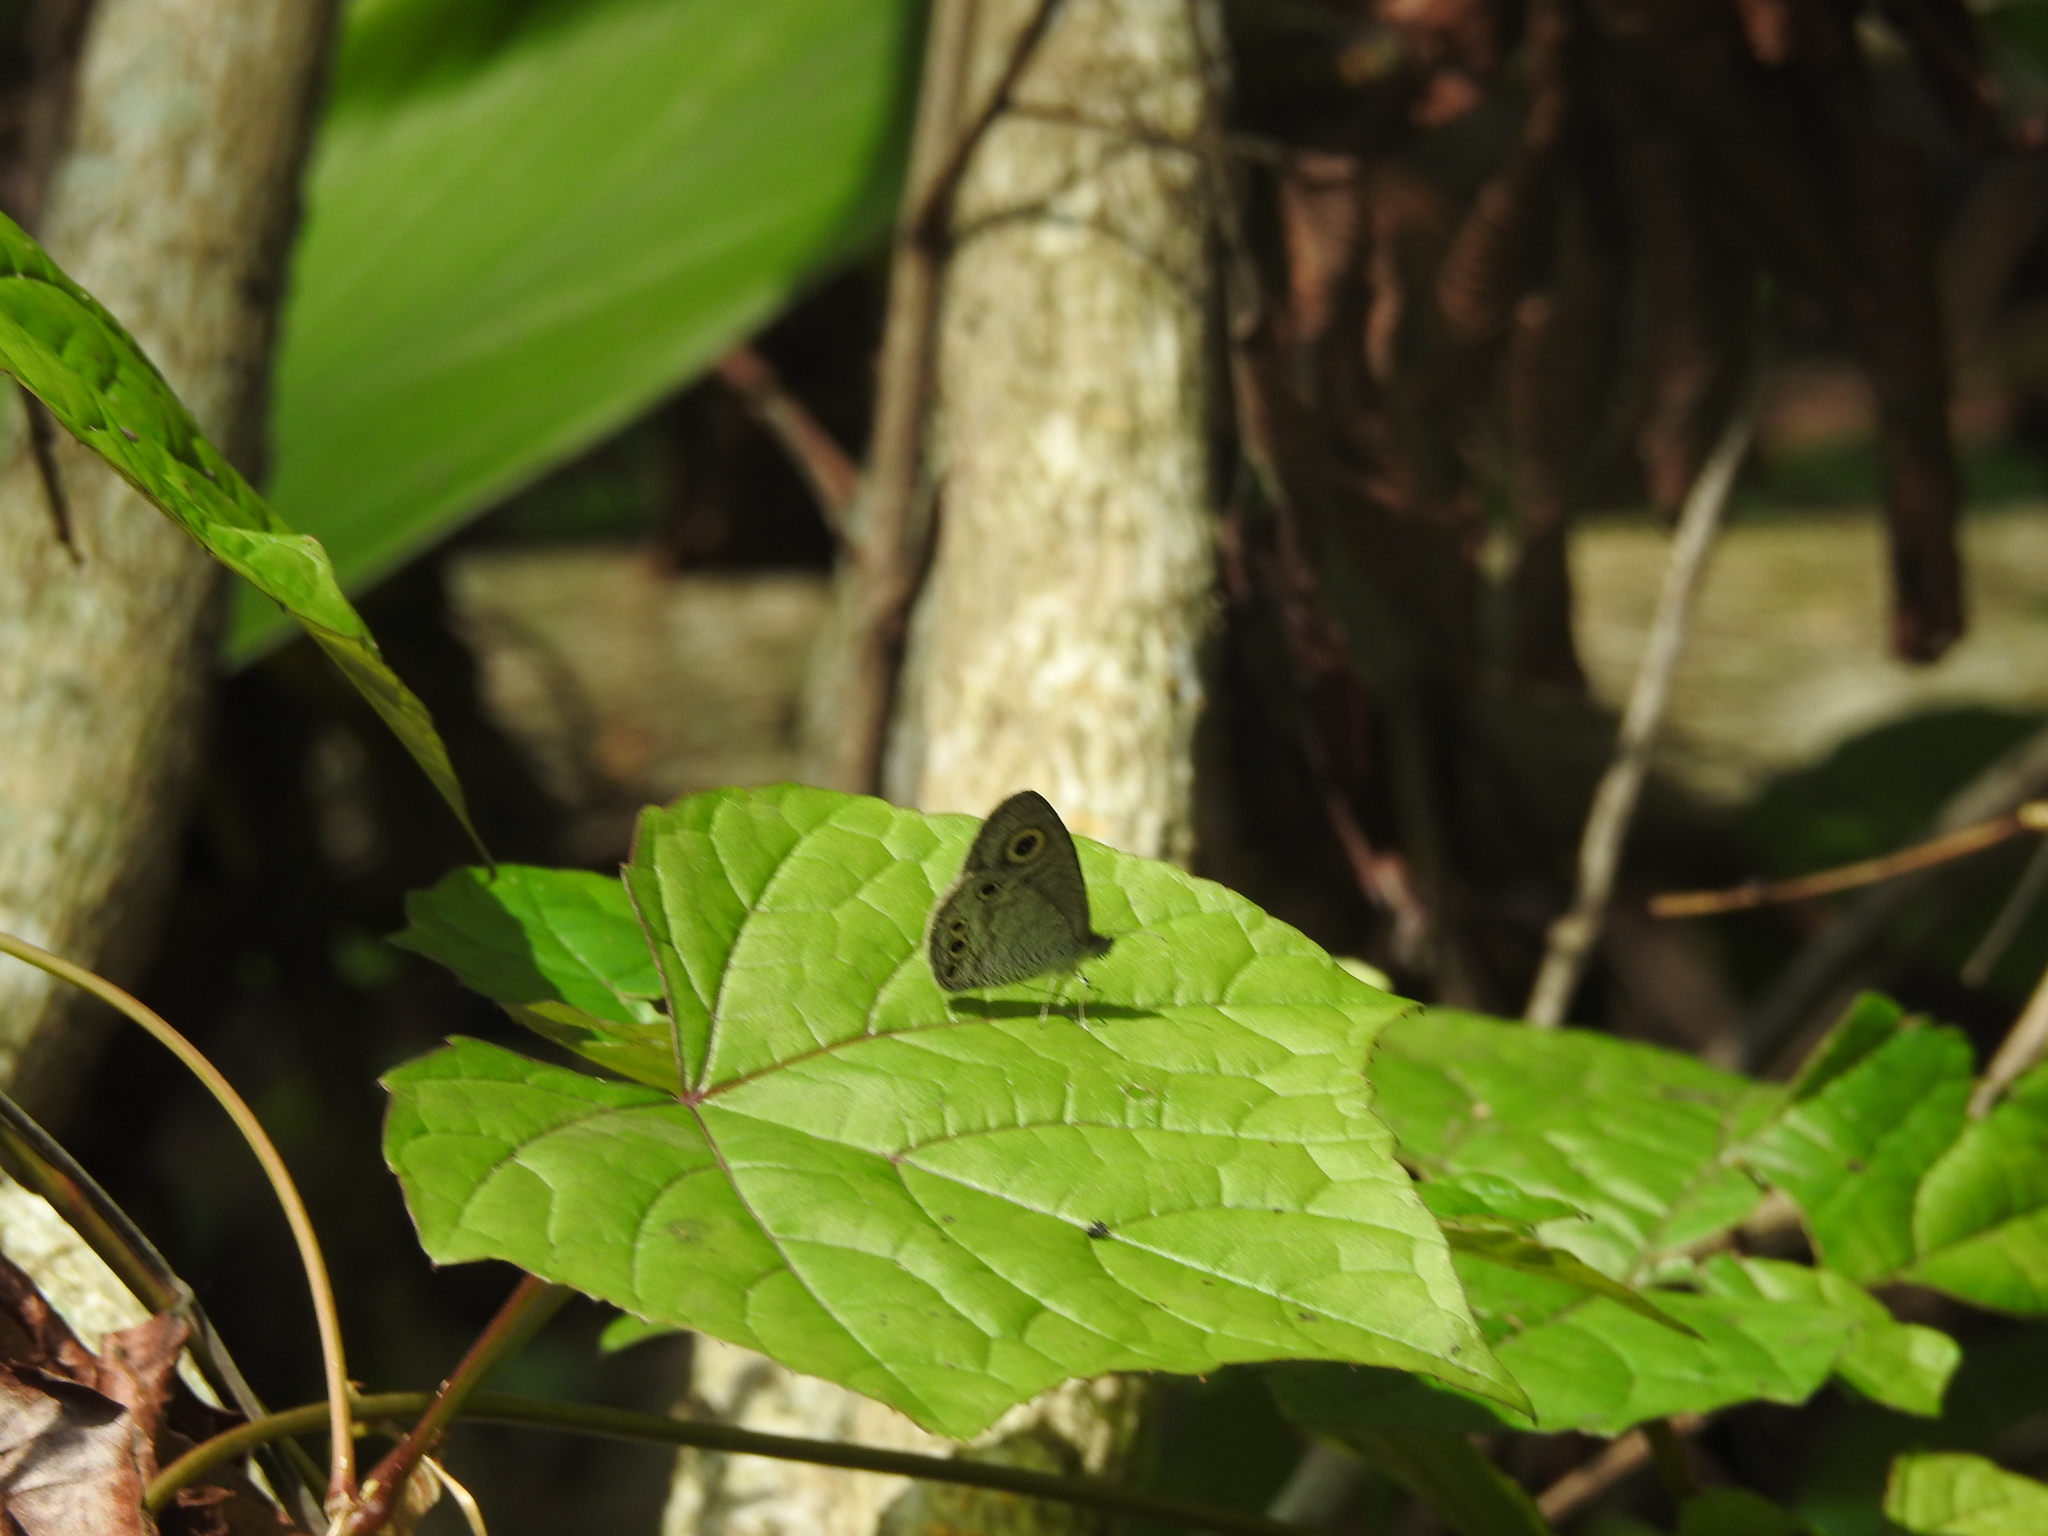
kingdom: Animalia
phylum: Arthropoda
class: Insecta
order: Lepidoptera
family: Nymphalidae
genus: Ypthima
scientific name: Ypthima huebneri
